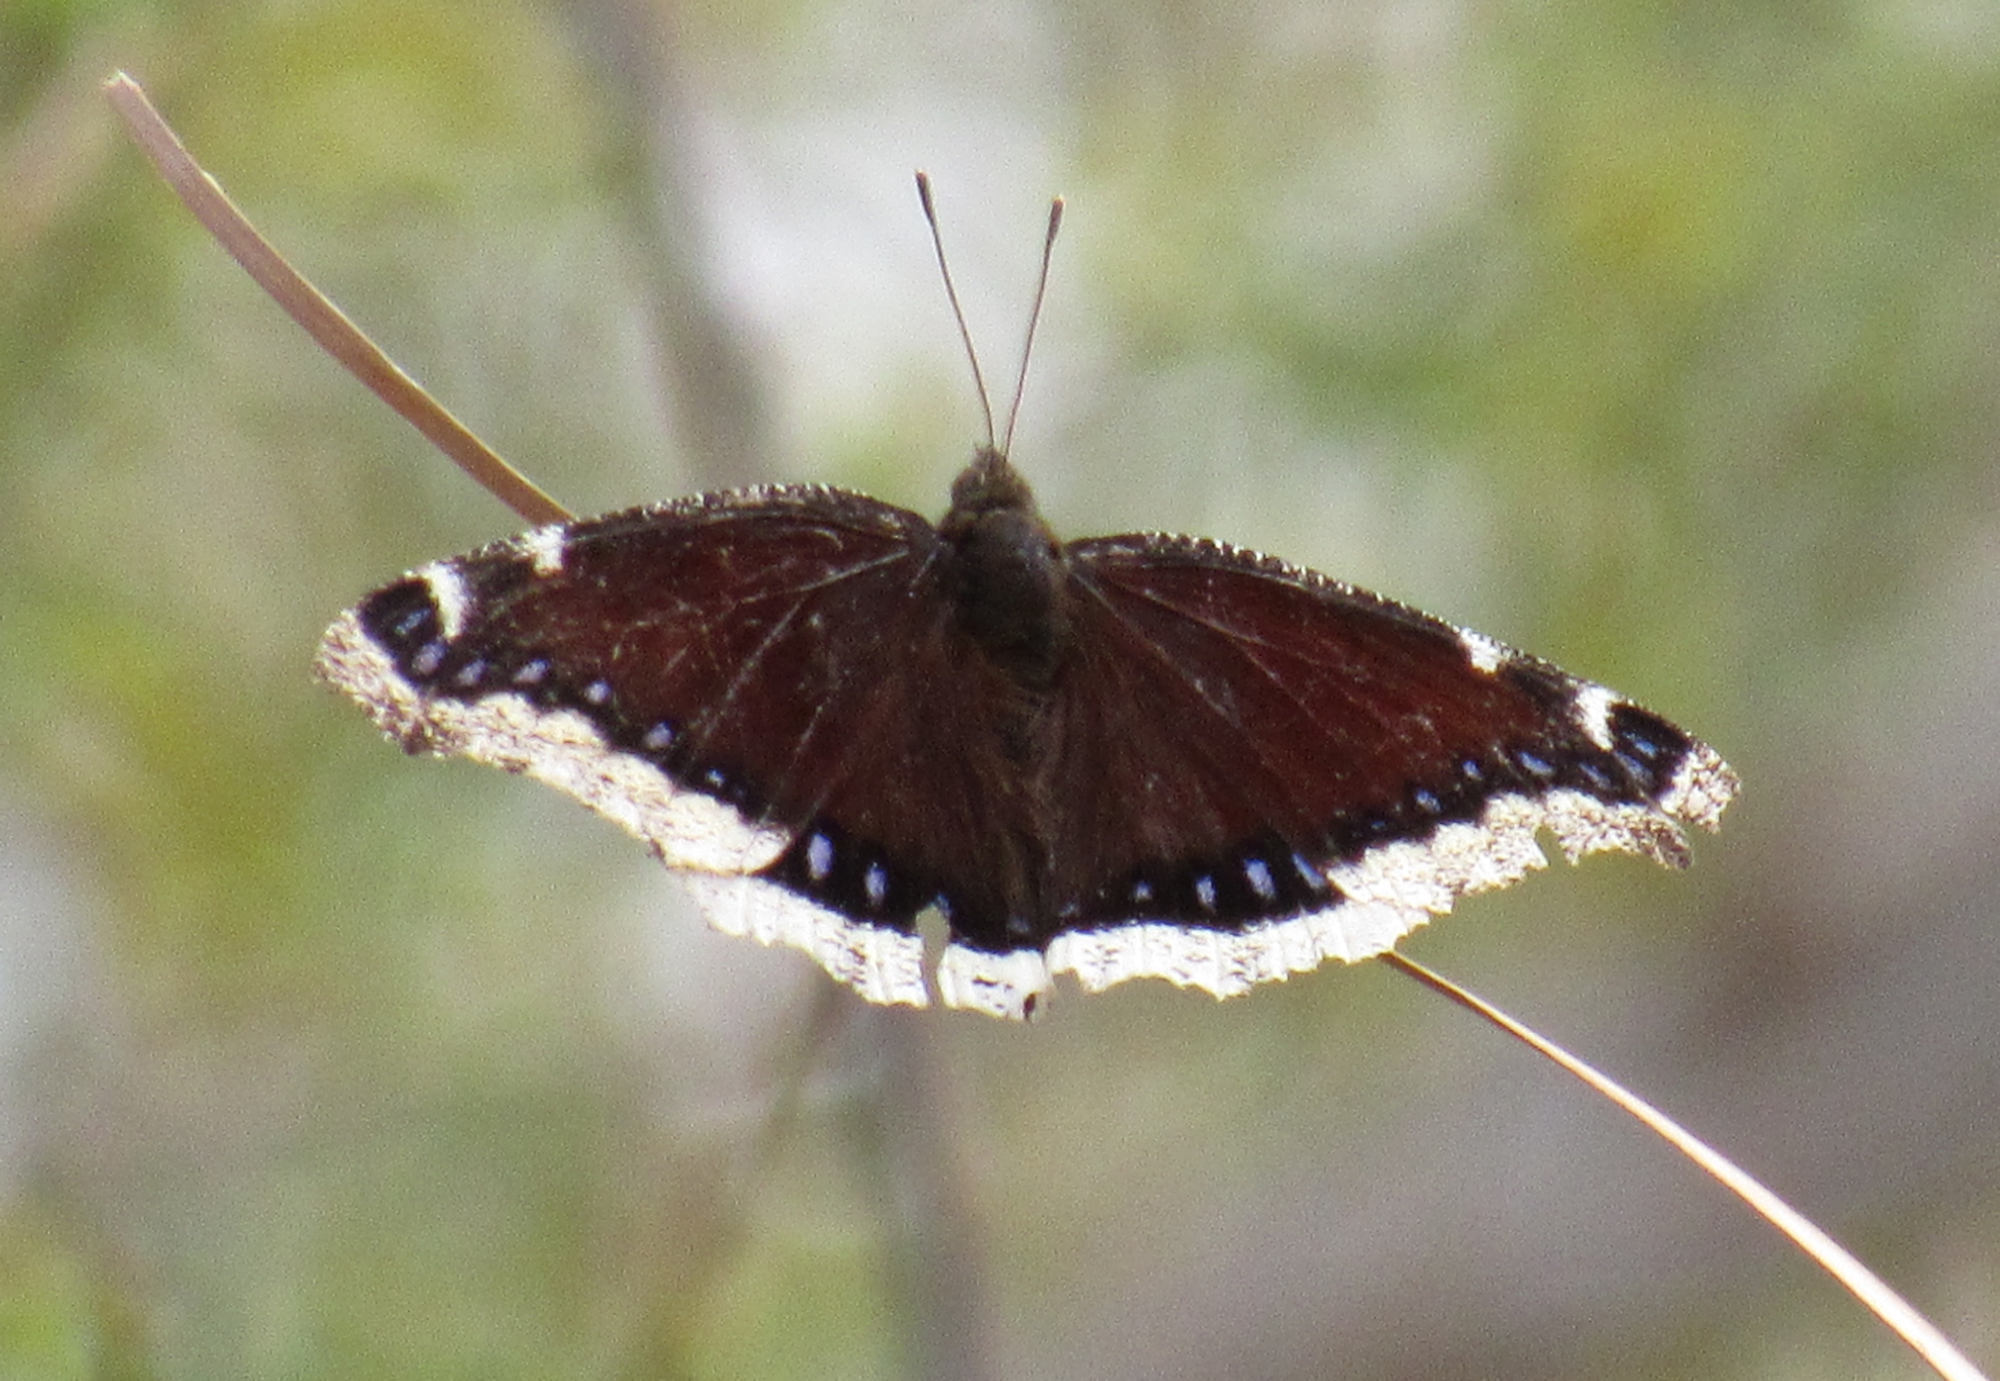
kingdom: Animalia
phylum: Arthropoda
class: Insecta
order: Lepidoptera
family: Nymphalidae
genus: Nymphalis
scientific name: Nymphalis antiopa
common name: Camberwell beauty
